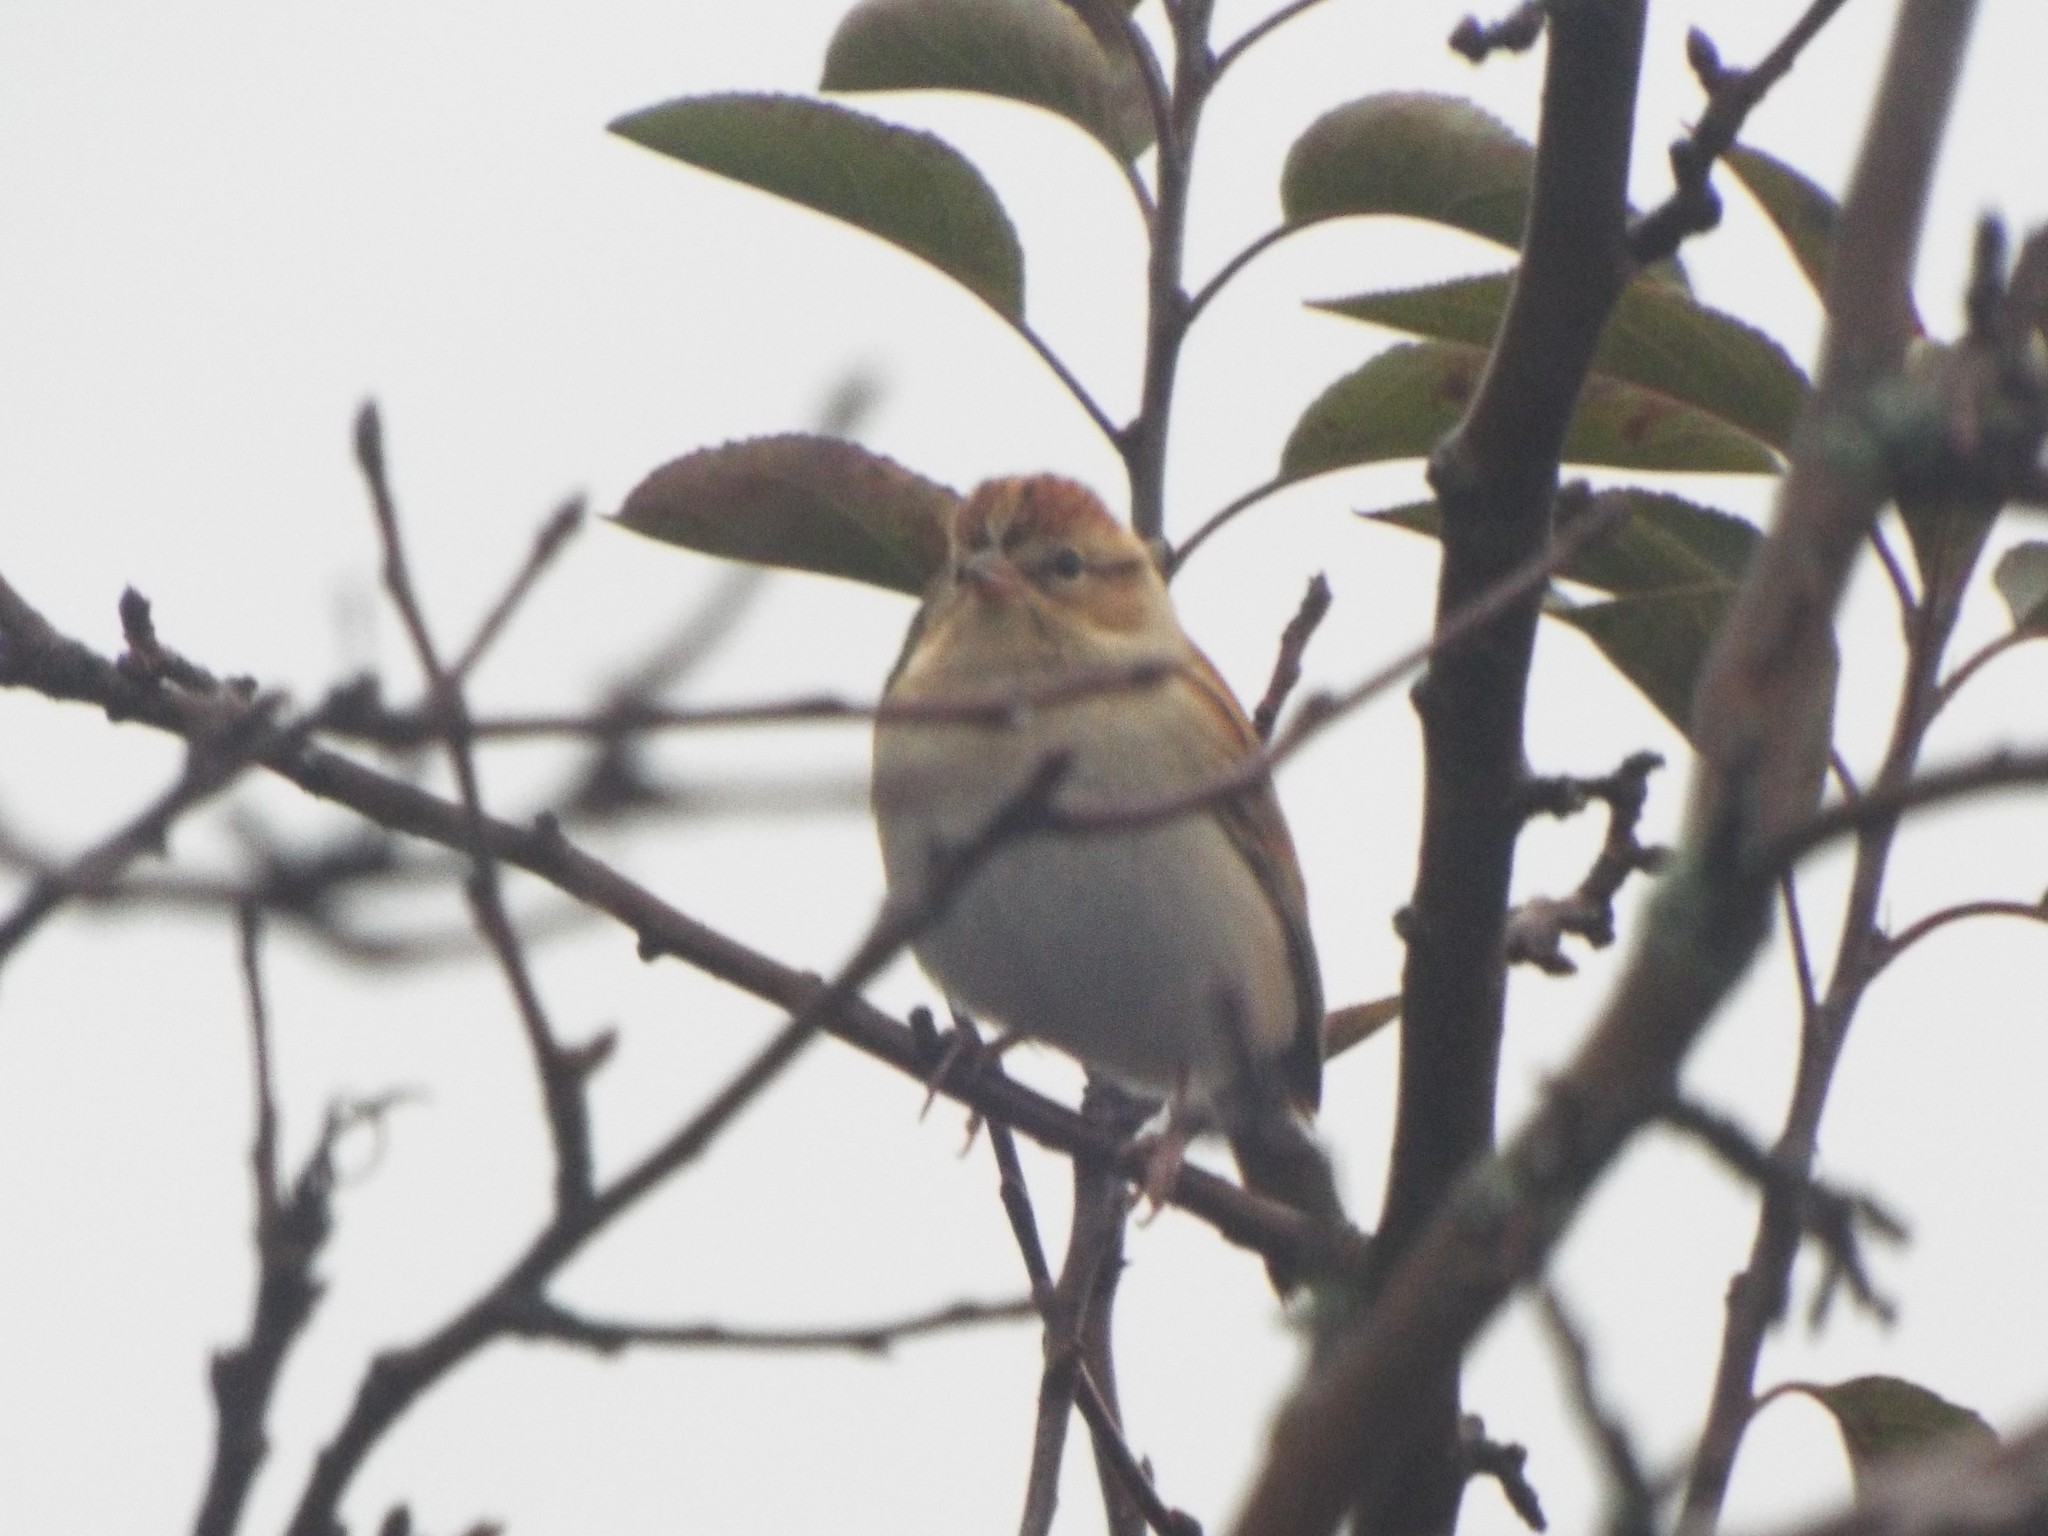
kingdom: Animalia
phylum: Chordata
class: Aves
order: Passeriformes
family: Passerellidae
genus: Spizella
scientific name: Spizella passerina
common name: Chipping sparrow
